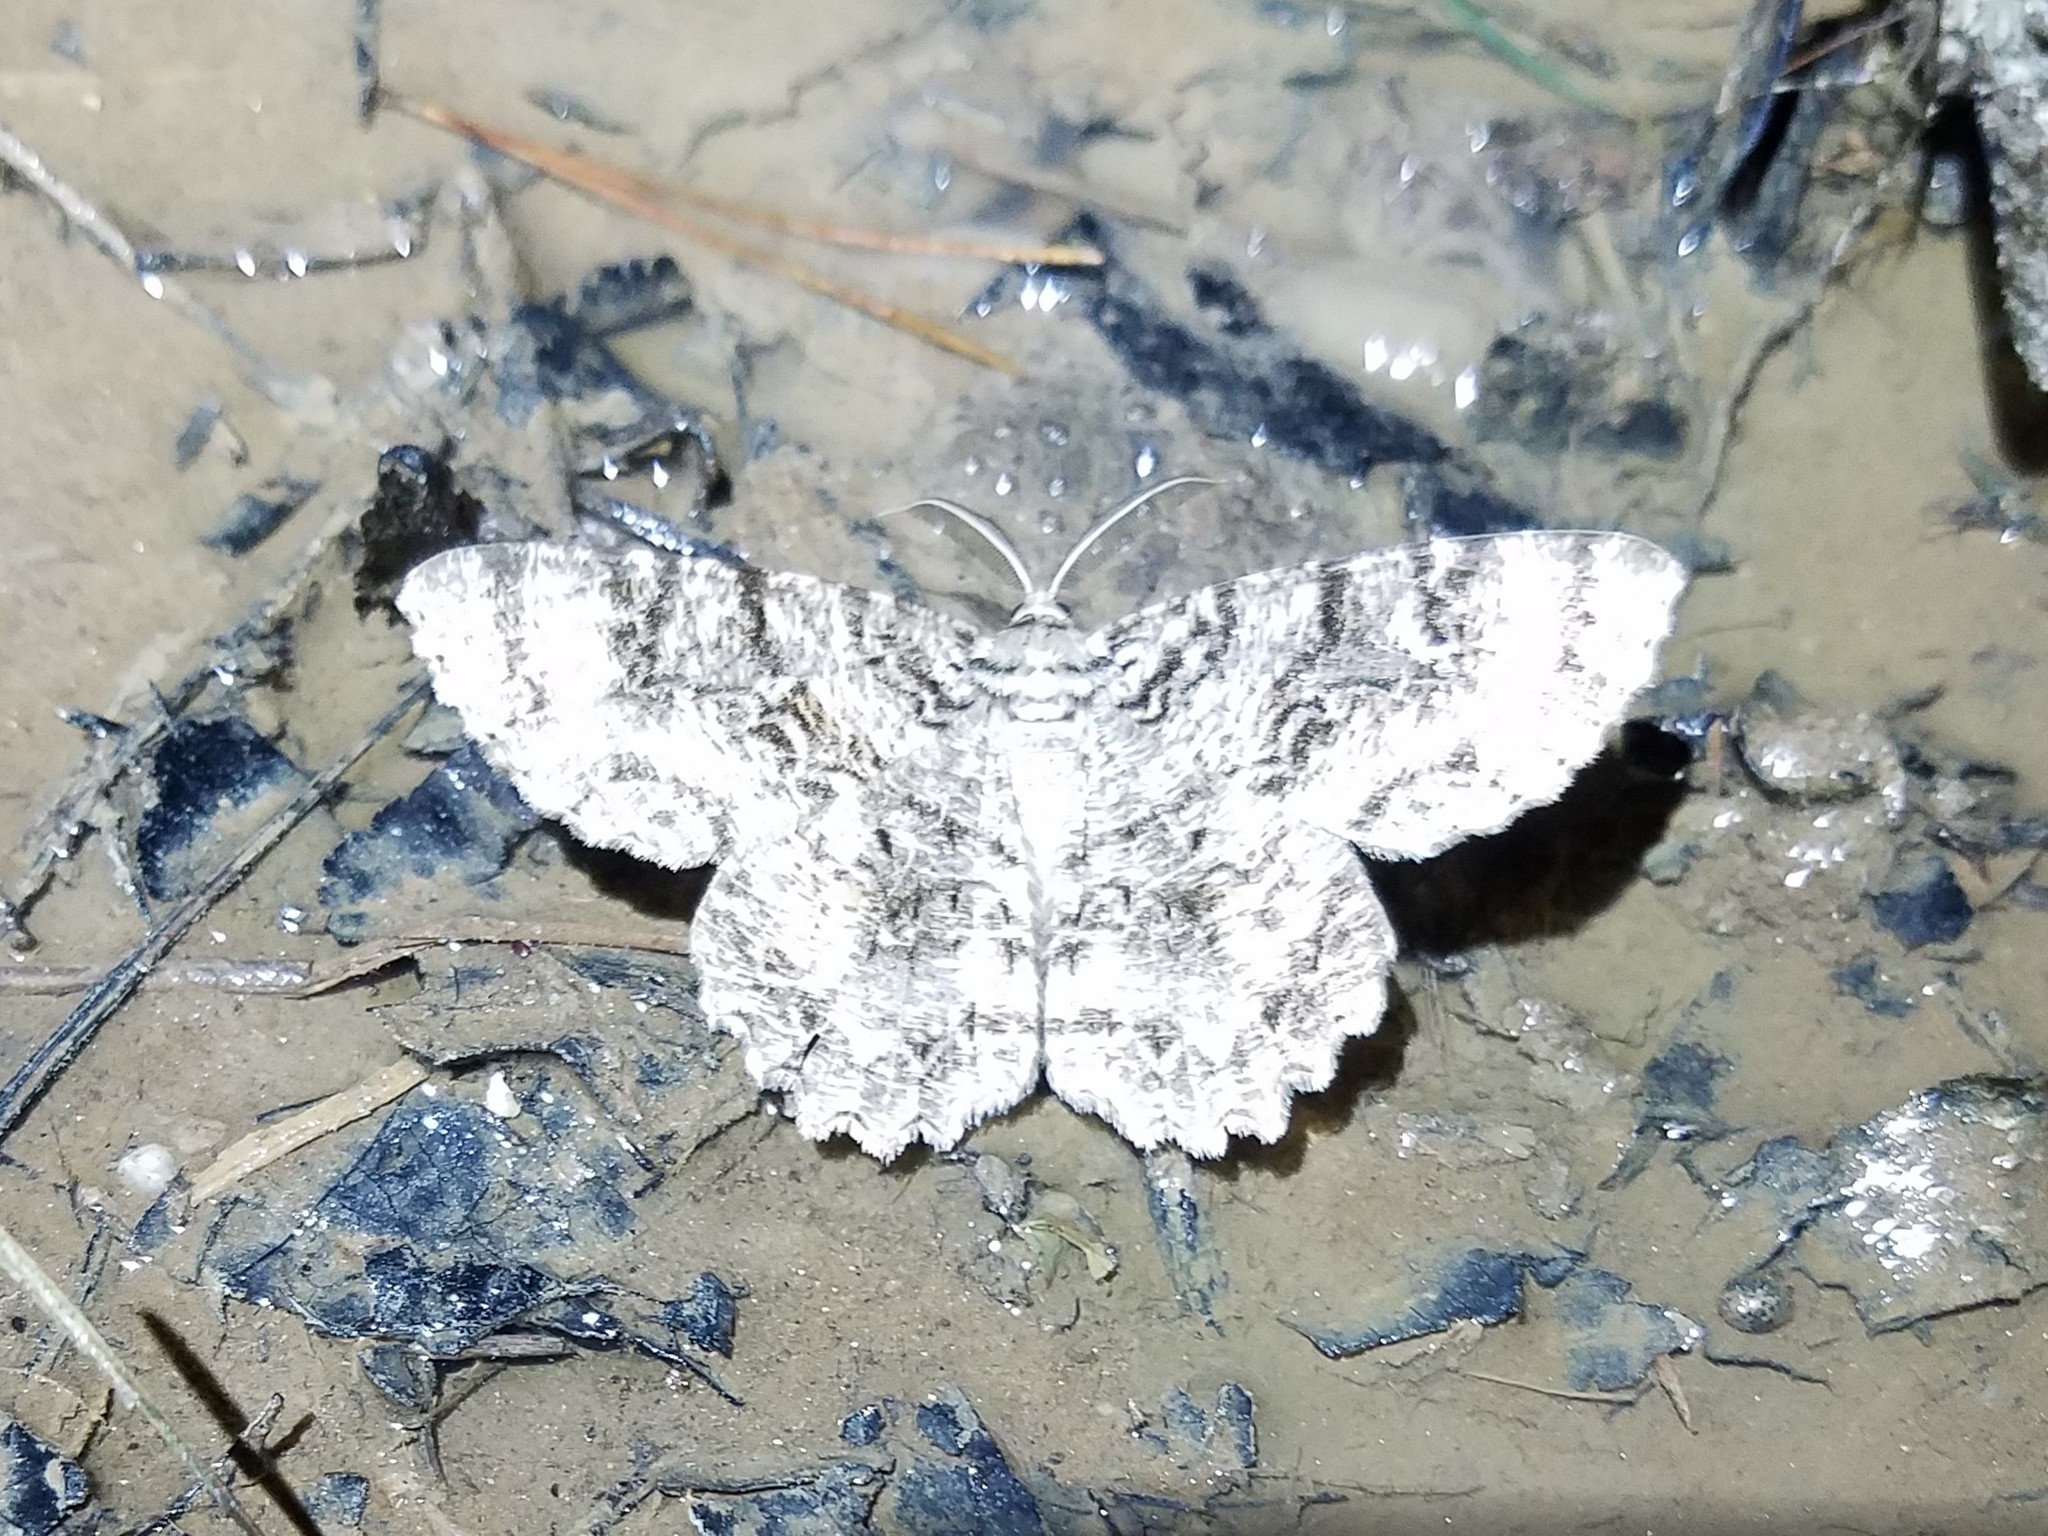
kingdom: Animalia
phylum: Arthropoda
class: Insecta
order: Lepidoptera
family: Geometridae
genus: Epimecis
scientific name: Epimecis hortaria
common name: Tulip-tree beauty
